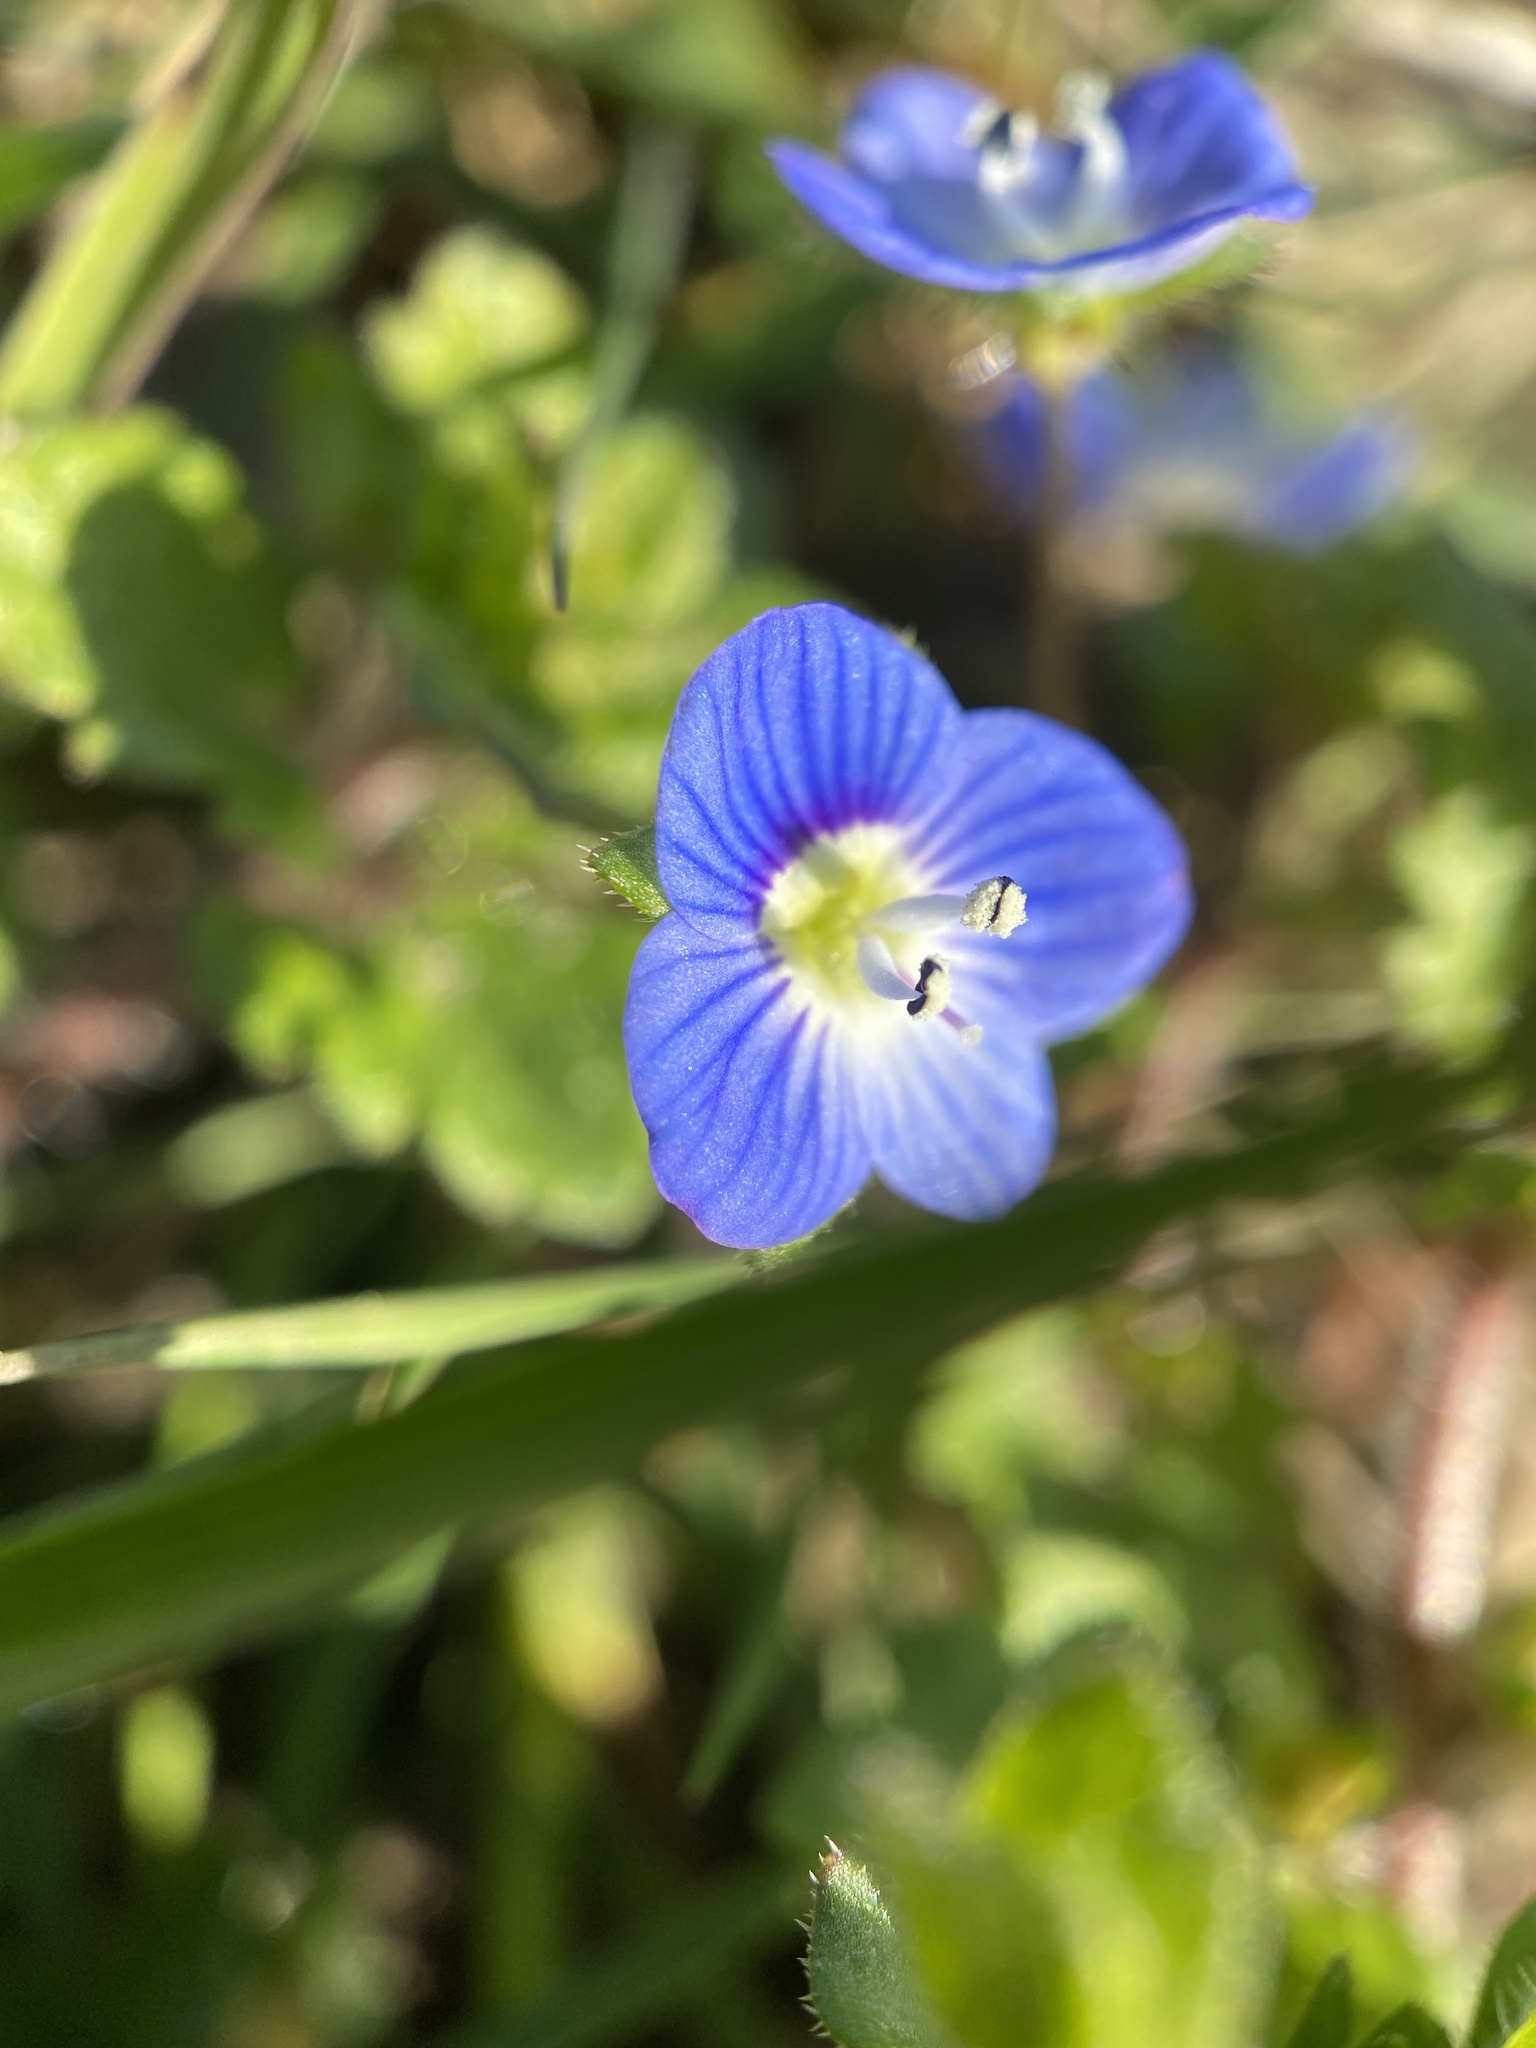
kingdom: Plantae
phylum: Tracheophyta
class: Magnoliopsida
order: Lamiales
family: Plantaginaceae
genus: Veronica
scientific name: Veronica persica
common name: Common field-speedwell
